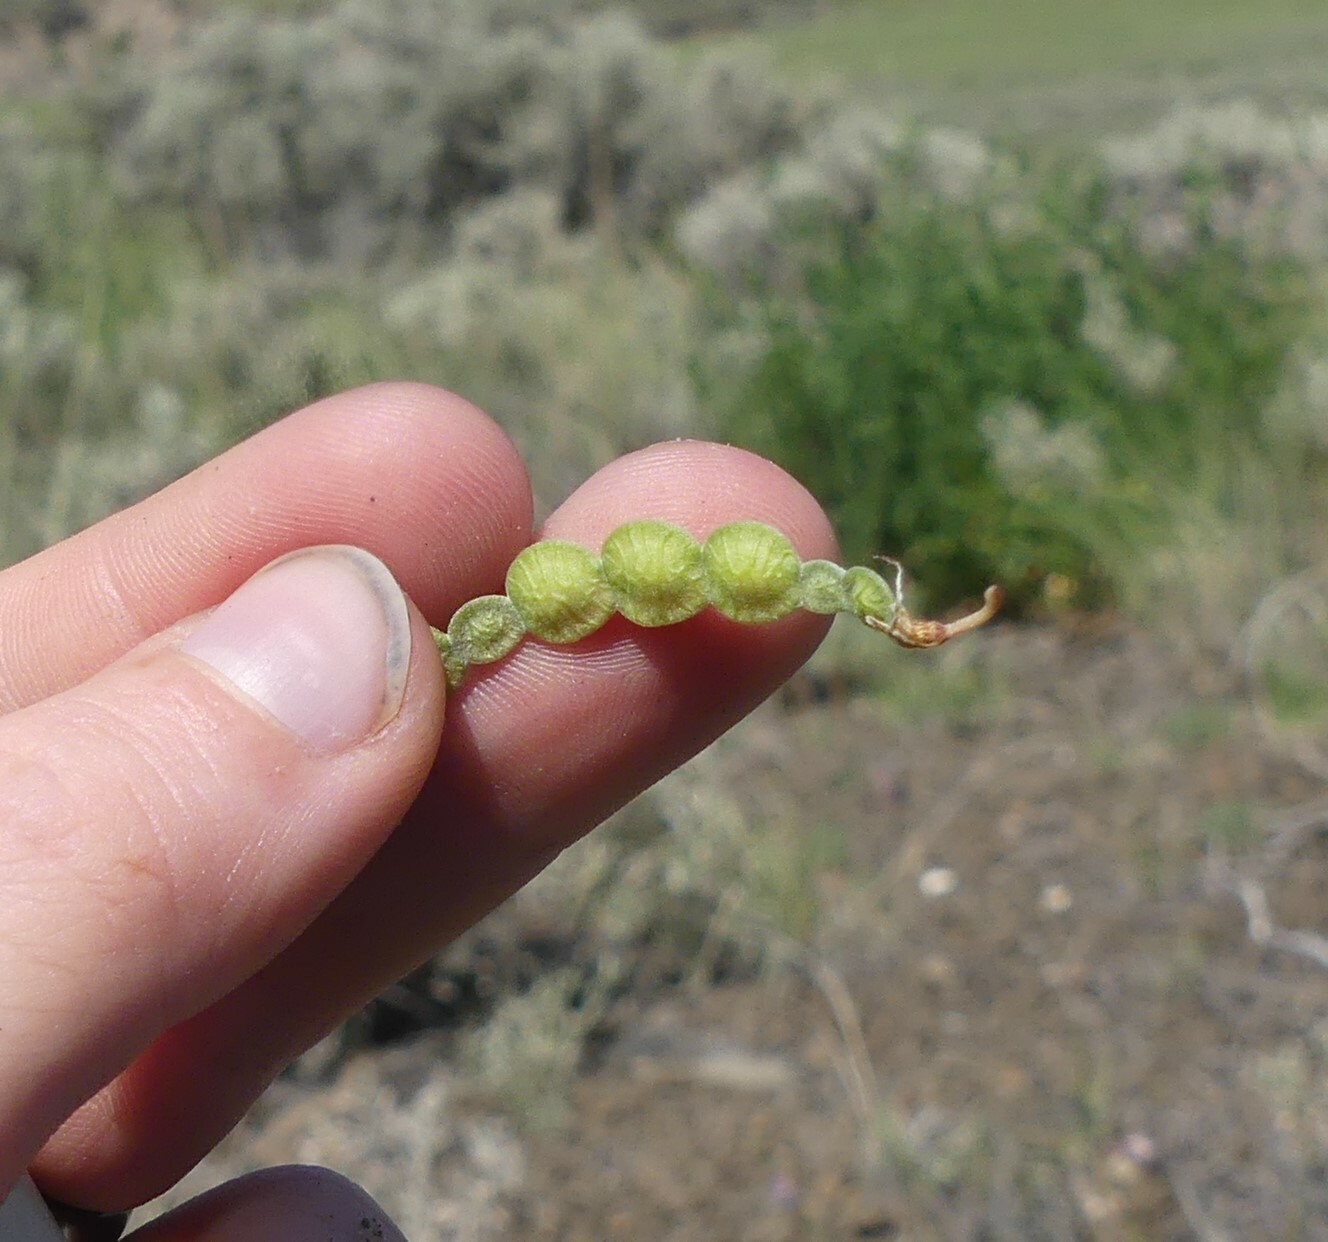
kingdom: Plantae
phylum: Tracheophyta
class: Magnoliopsida
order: Fabales
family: Fabaceae
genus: Hedysarum
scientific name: Hedysarum boreale
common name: Northern sweet-vetch
